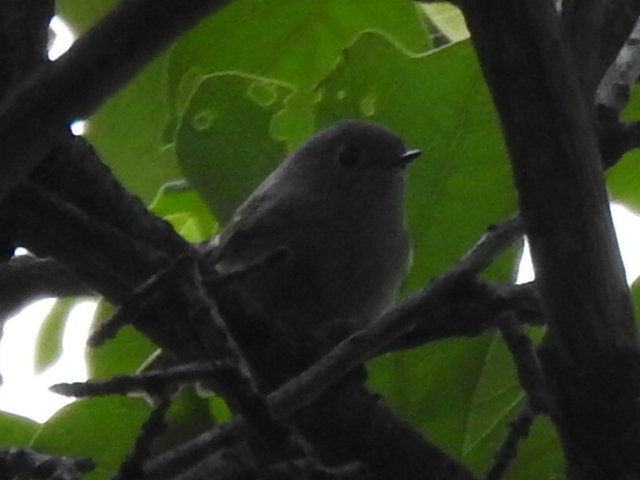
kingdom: Animalia
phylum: Chordata
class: Aves
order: Passeriformes
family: Regulidae
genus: Regulus
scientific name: Regulus calendula
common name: Ruby-crowned kinglet
